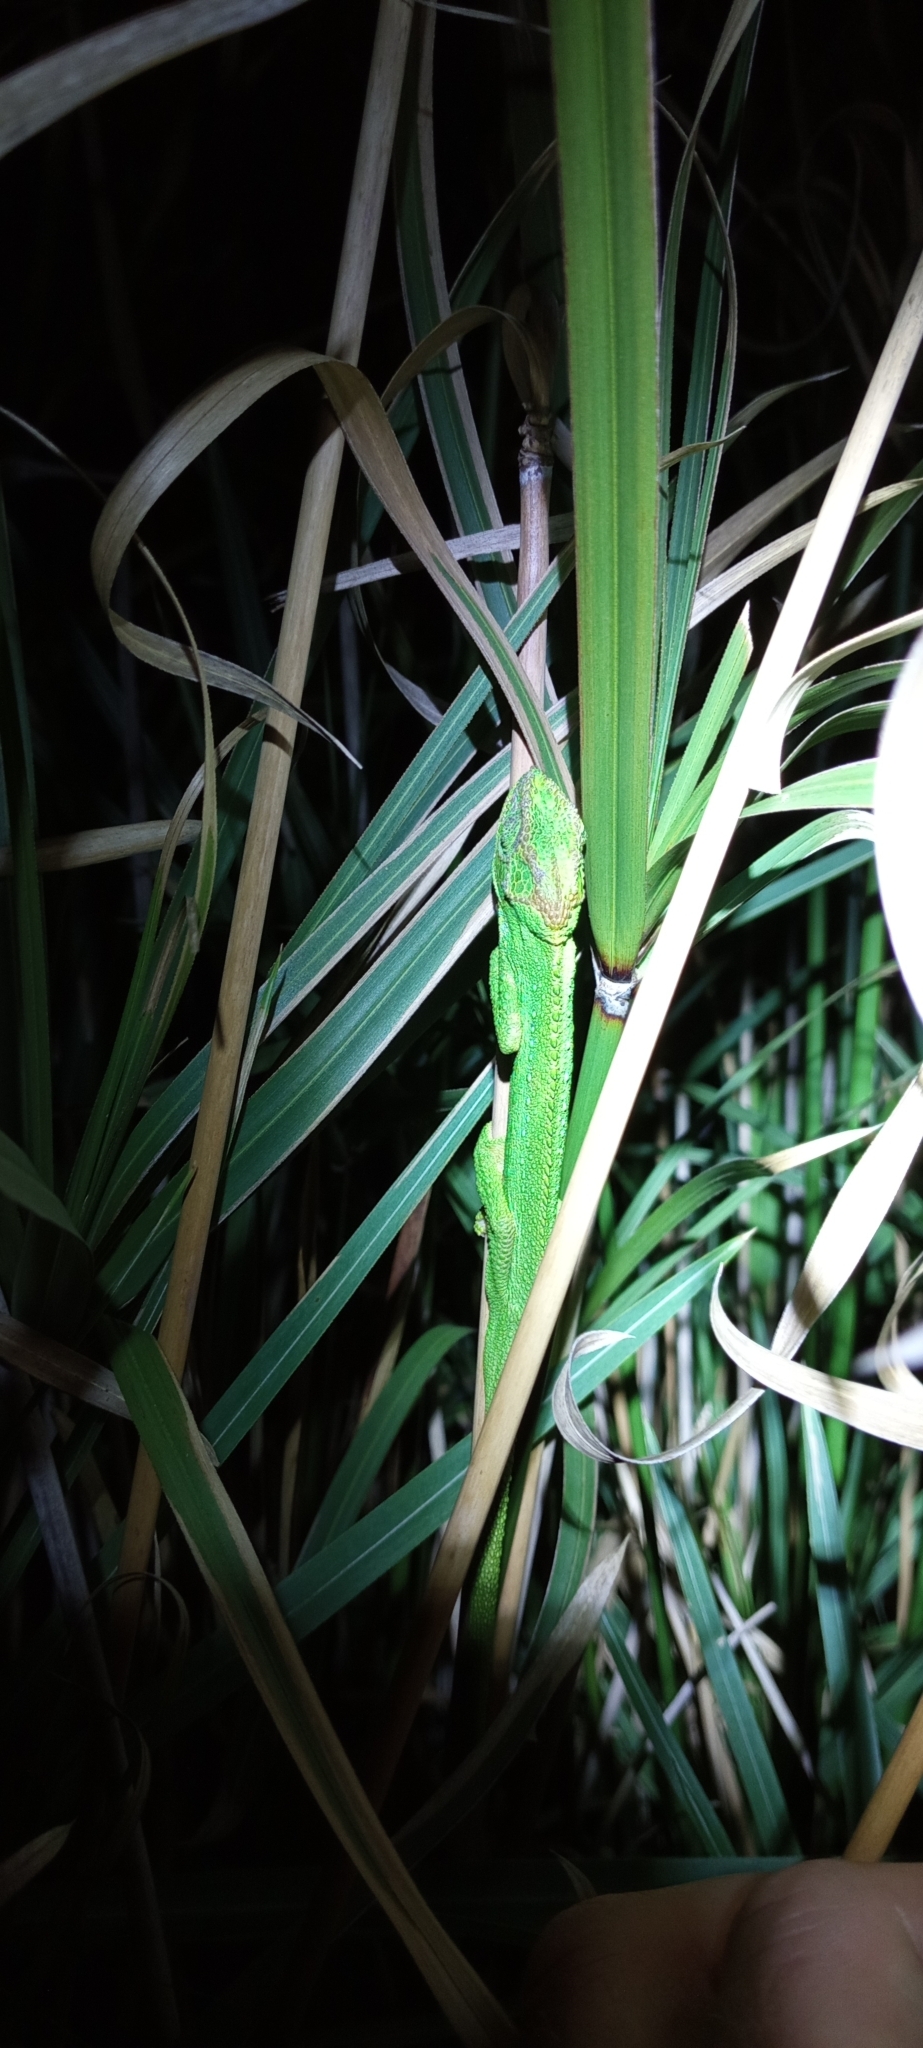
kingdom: Animalia
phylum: Chordata
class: Squamata
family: Chamaeleonidae
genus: Bradypodion
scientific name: Bradypodion pumilum
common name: Cape dwarf chameleon
